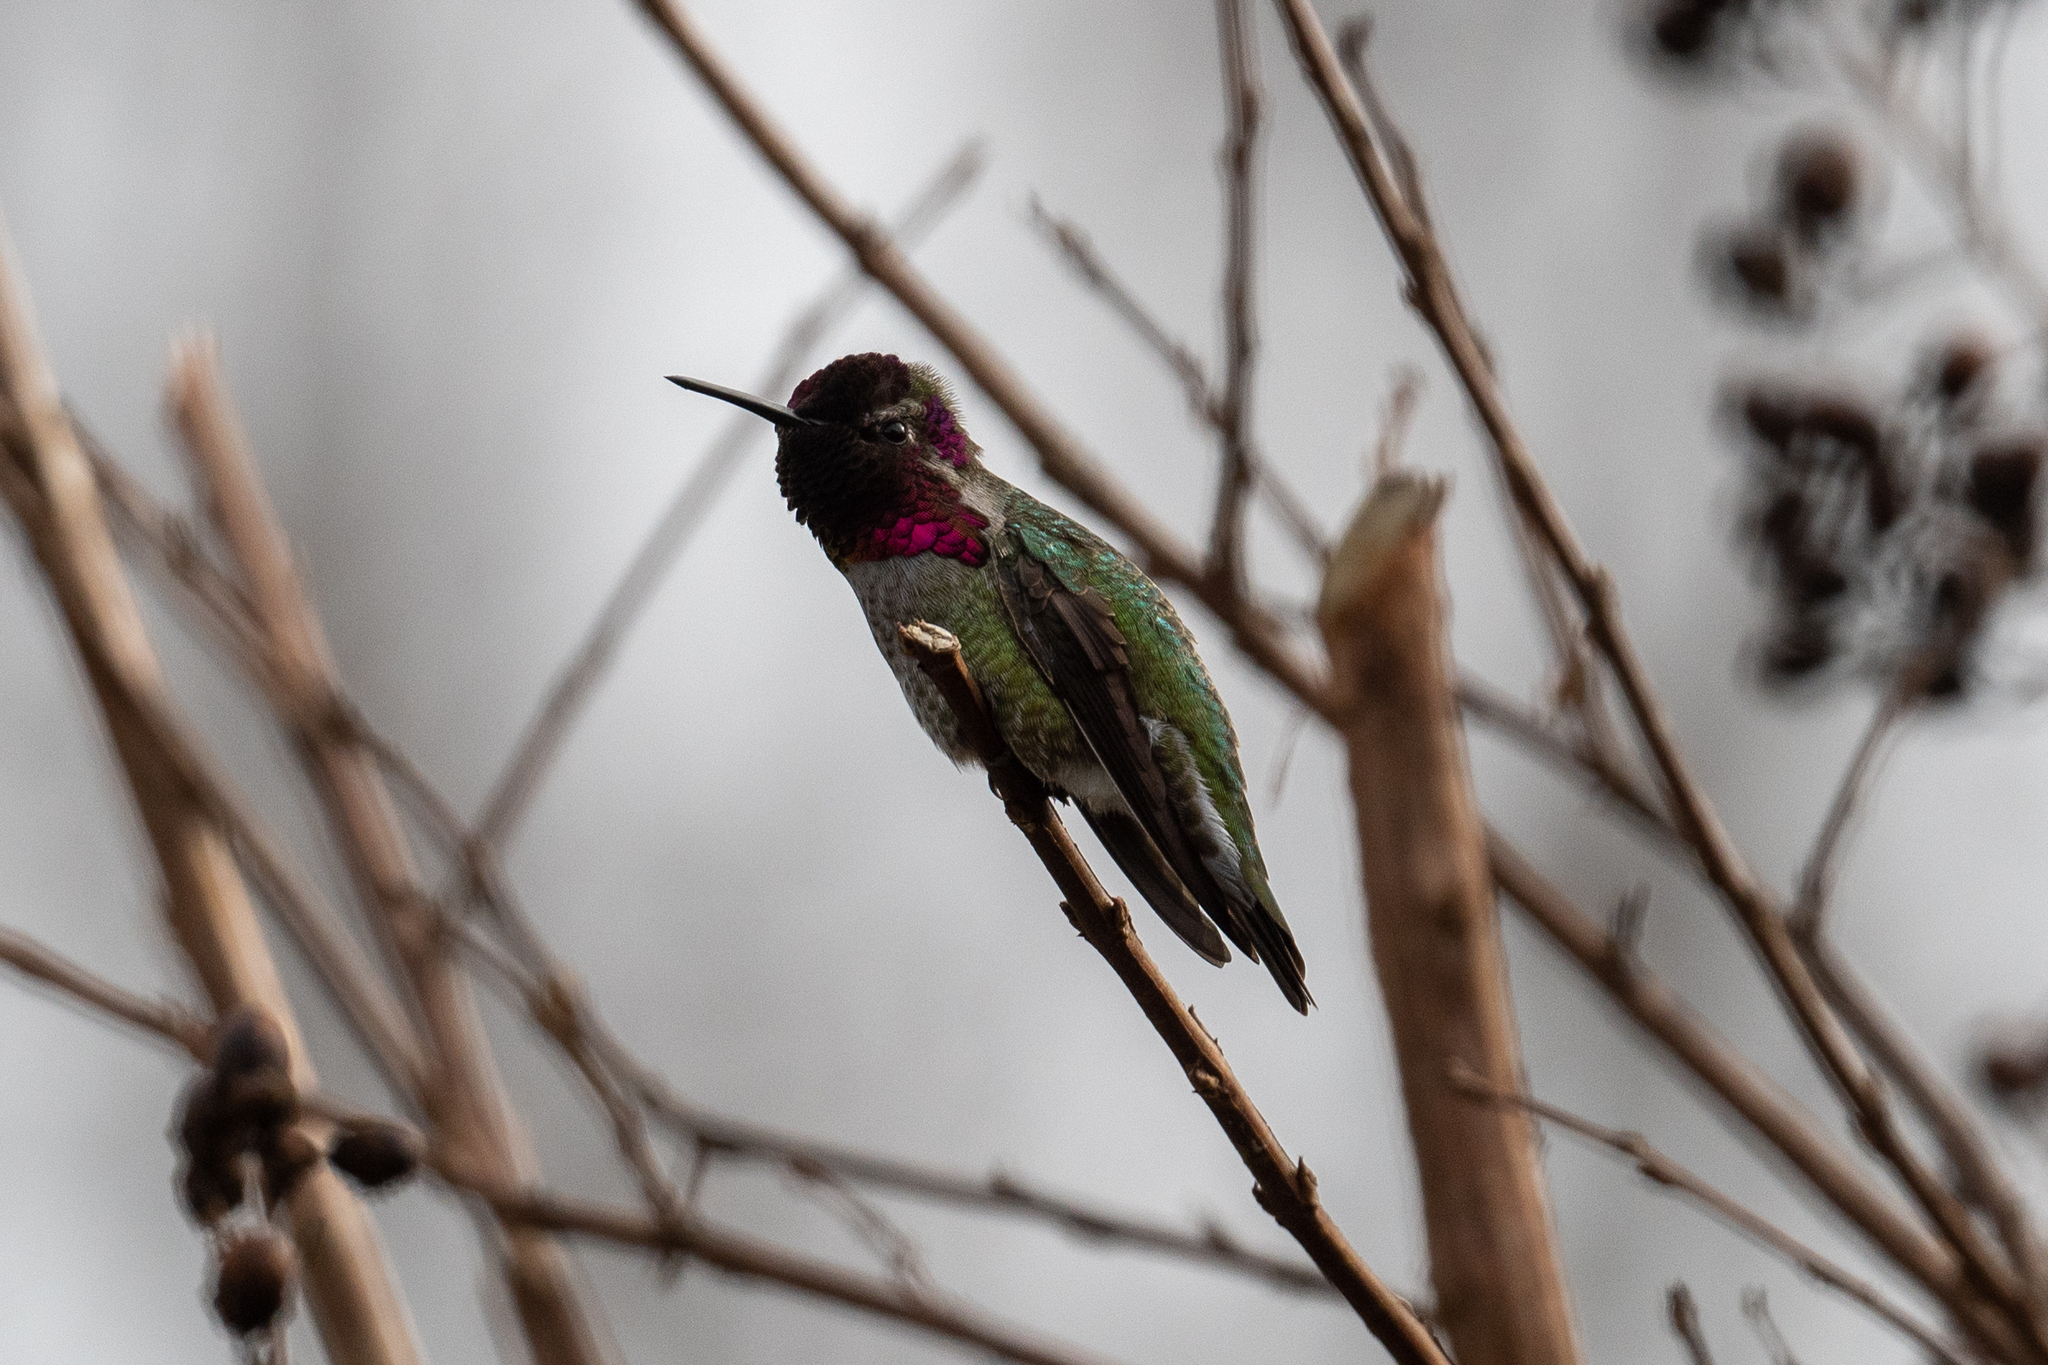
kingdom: Animalia
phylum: Chordata
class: Aves
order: Apodiformes
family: Trochilidae
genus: Calypte
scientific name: Calypte anna
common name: Anna's hummingbird
